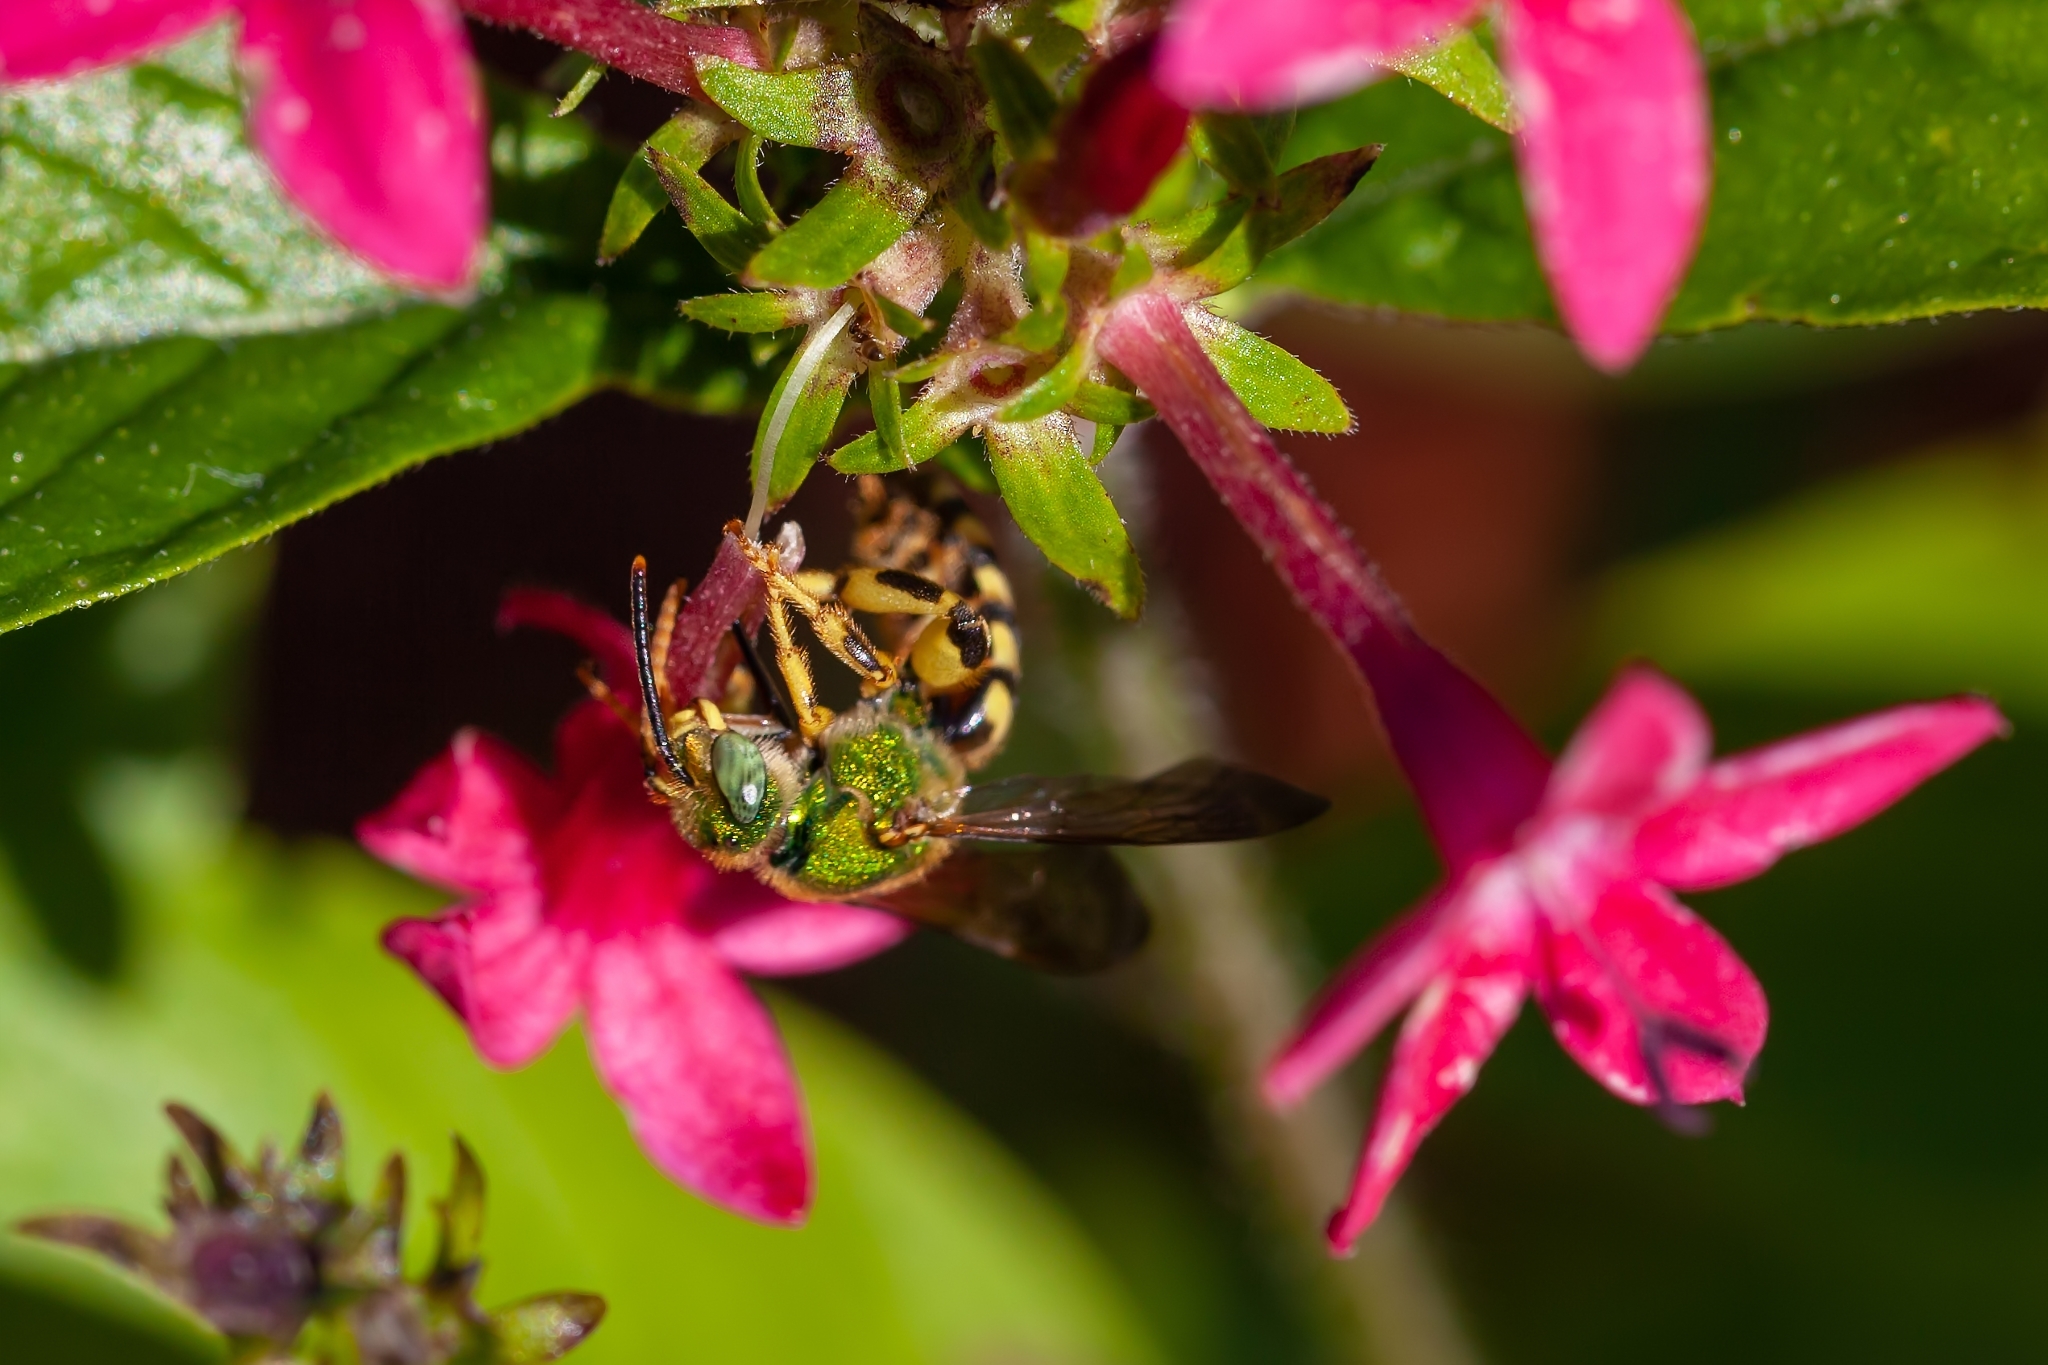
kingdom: Animalia
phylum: Arthropoda
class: Insecta
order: Hymenoptera
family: Halictidae
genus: Agapostemon
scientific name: Agapostemon splendens
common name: Brown-winged striped sweat bee
